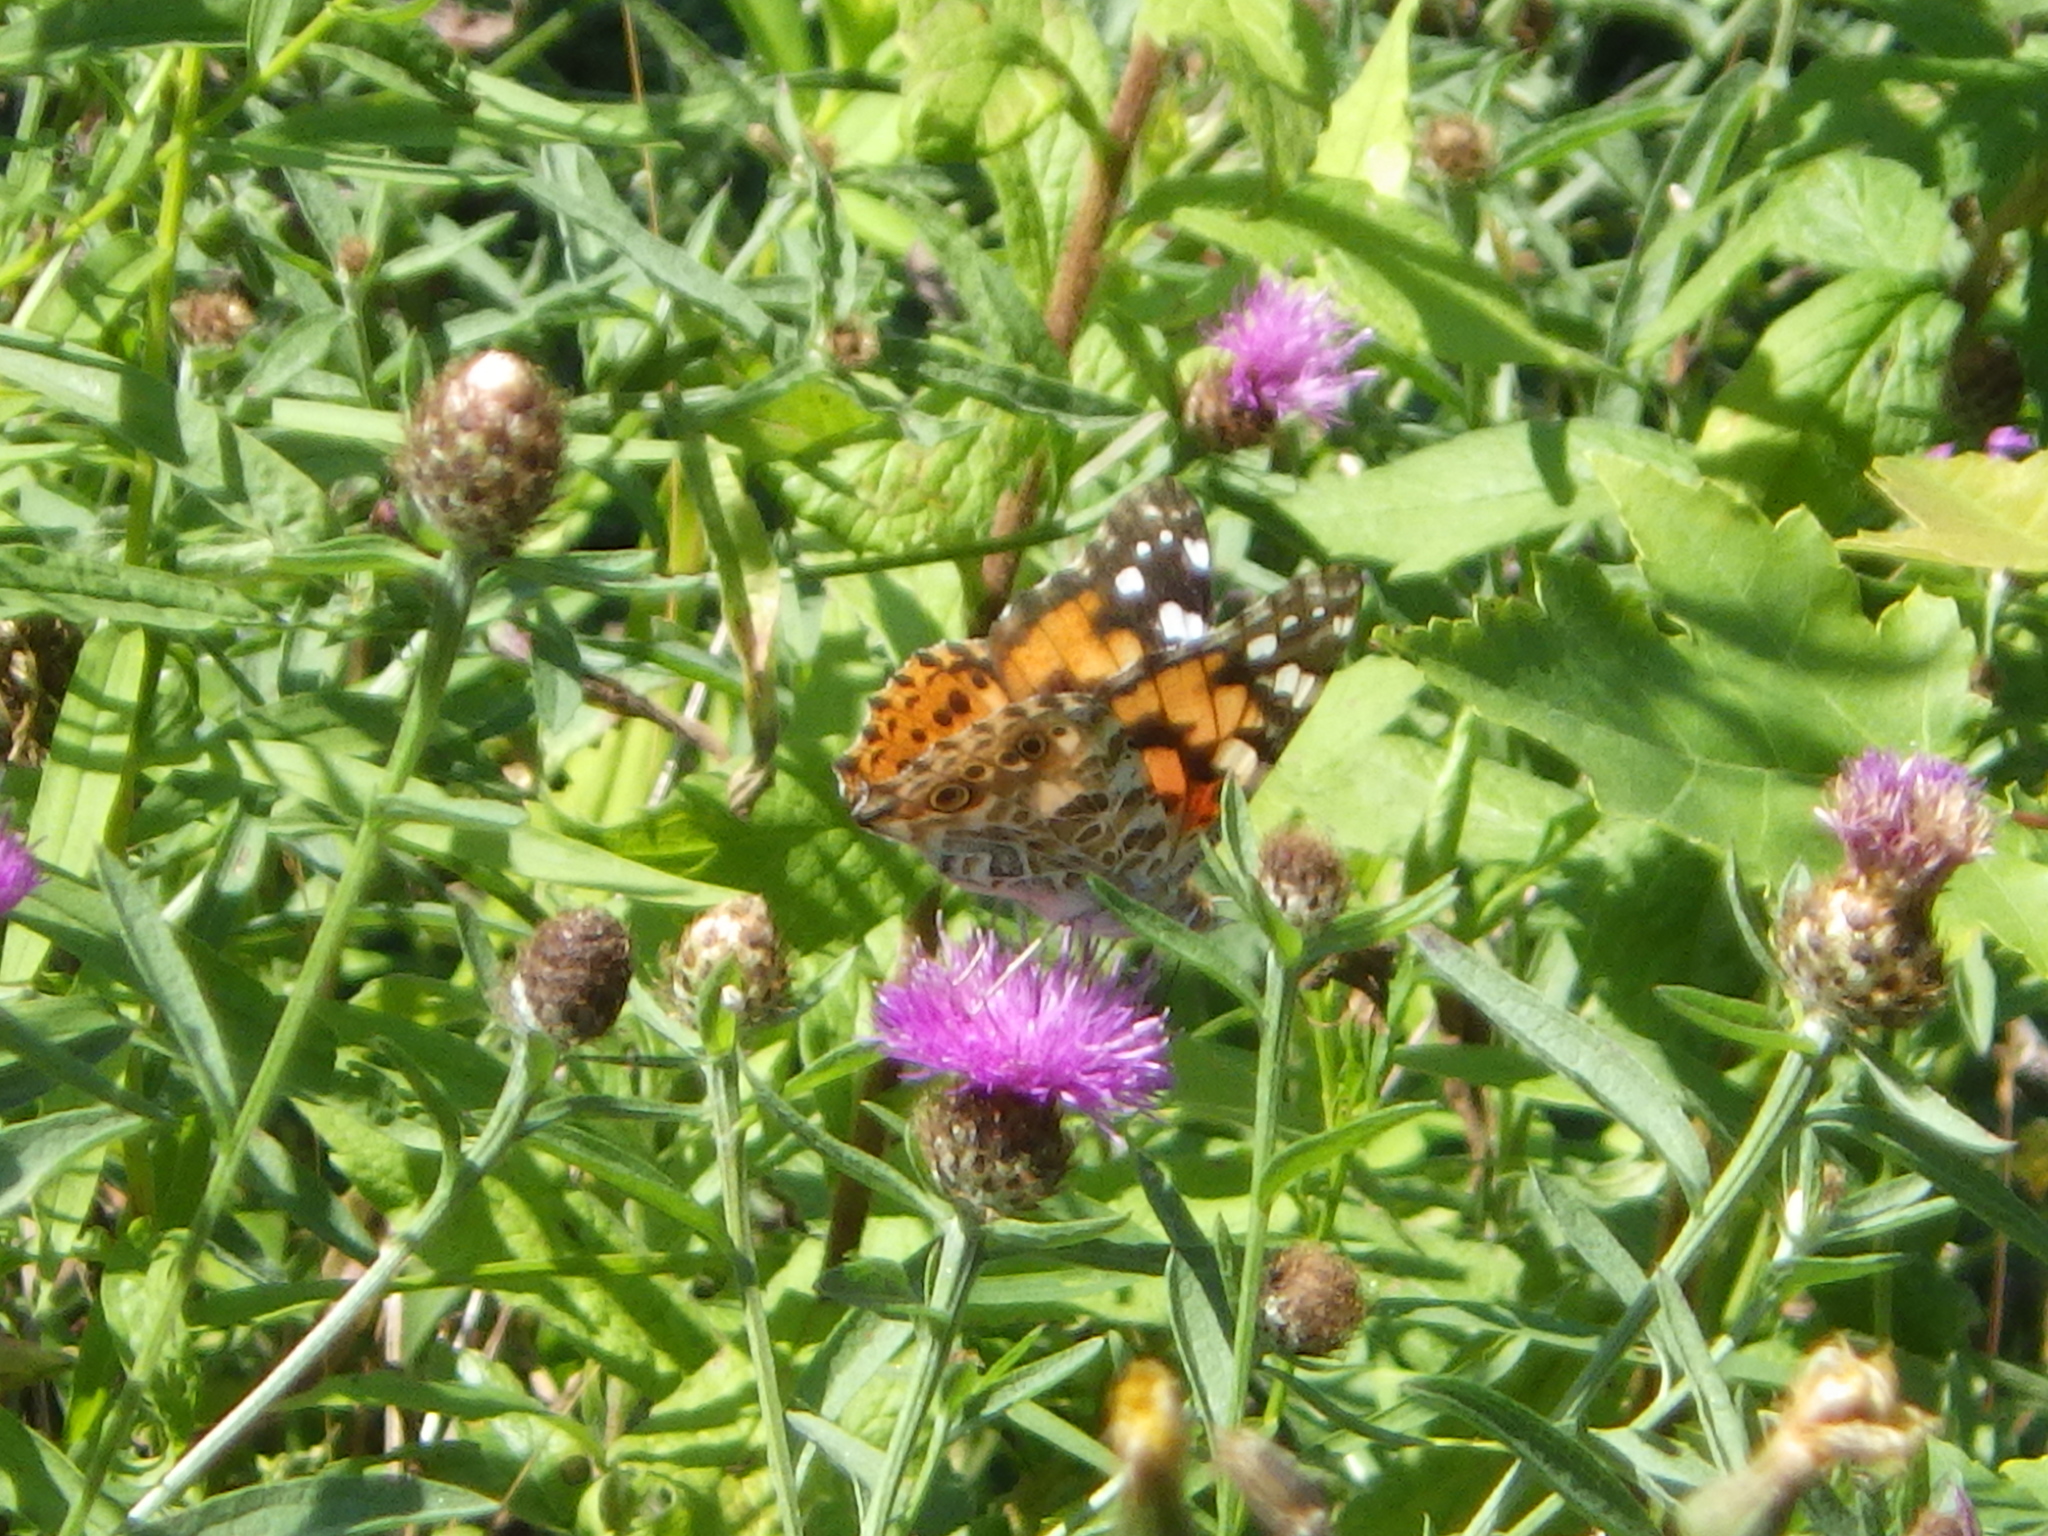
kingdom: Animalia
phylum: Arthropoda
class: Insecta
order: Lepidoptera
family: Nymphalidae
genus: Vanessa
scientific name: Vanessa cardui
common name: Painted lady
